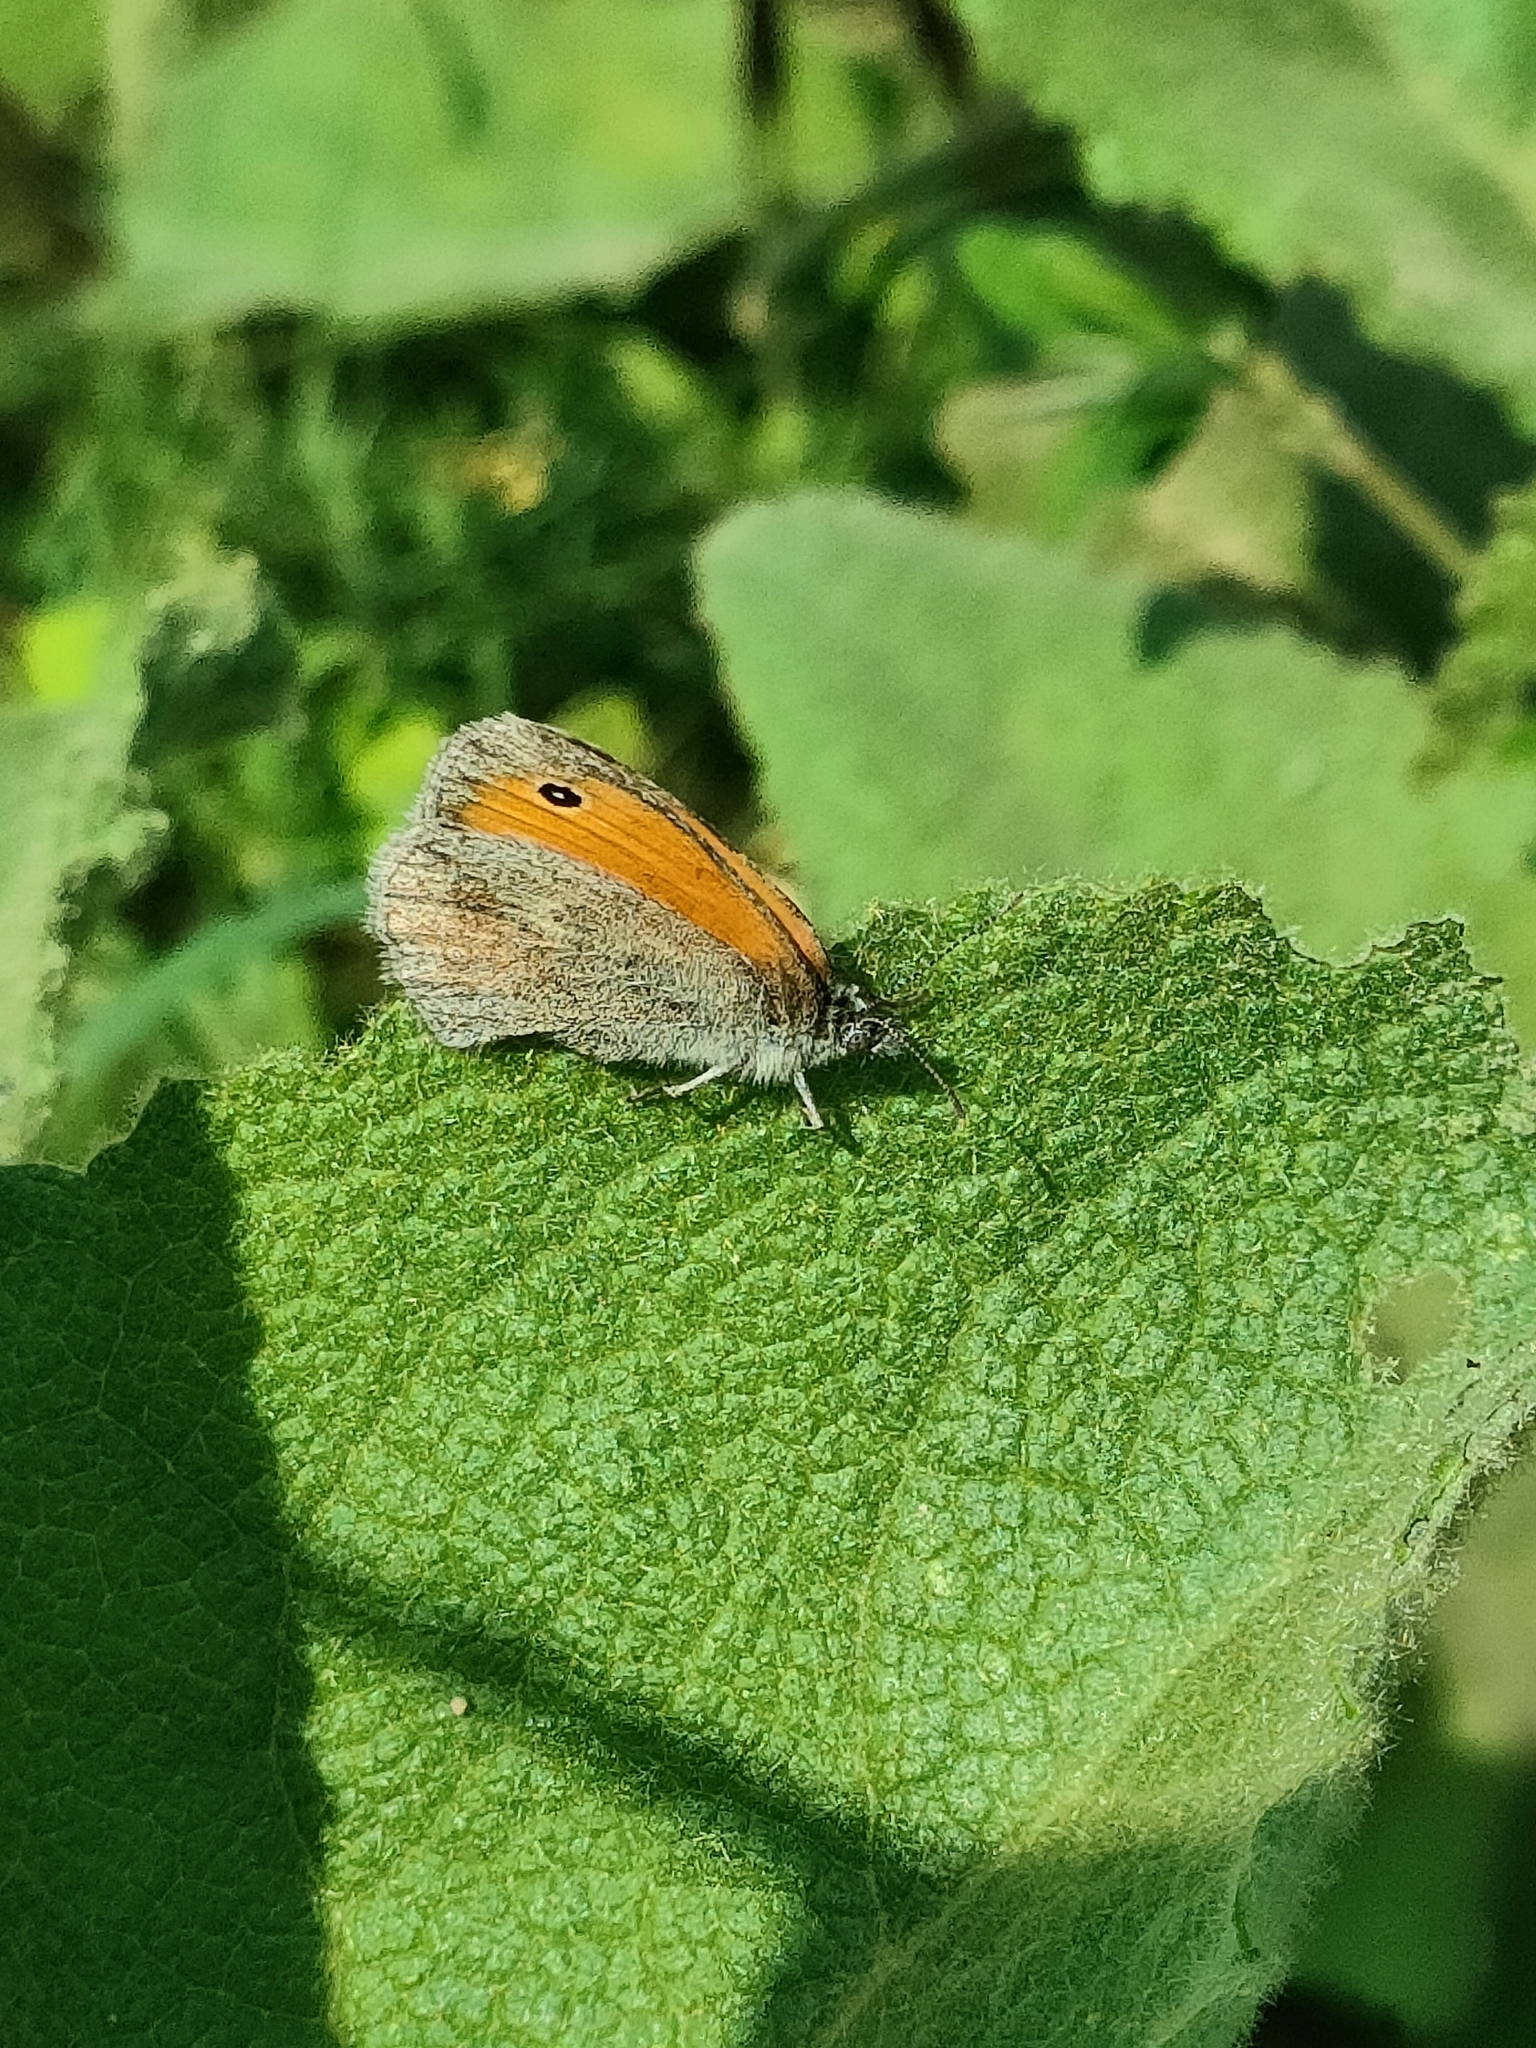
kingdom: Animalia
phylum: Arthropoda
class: Insecta
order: Lepidoptera
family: Nymphalidae
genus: Coenonympha
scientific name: Coenonympha pamphilus
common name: Small heath
